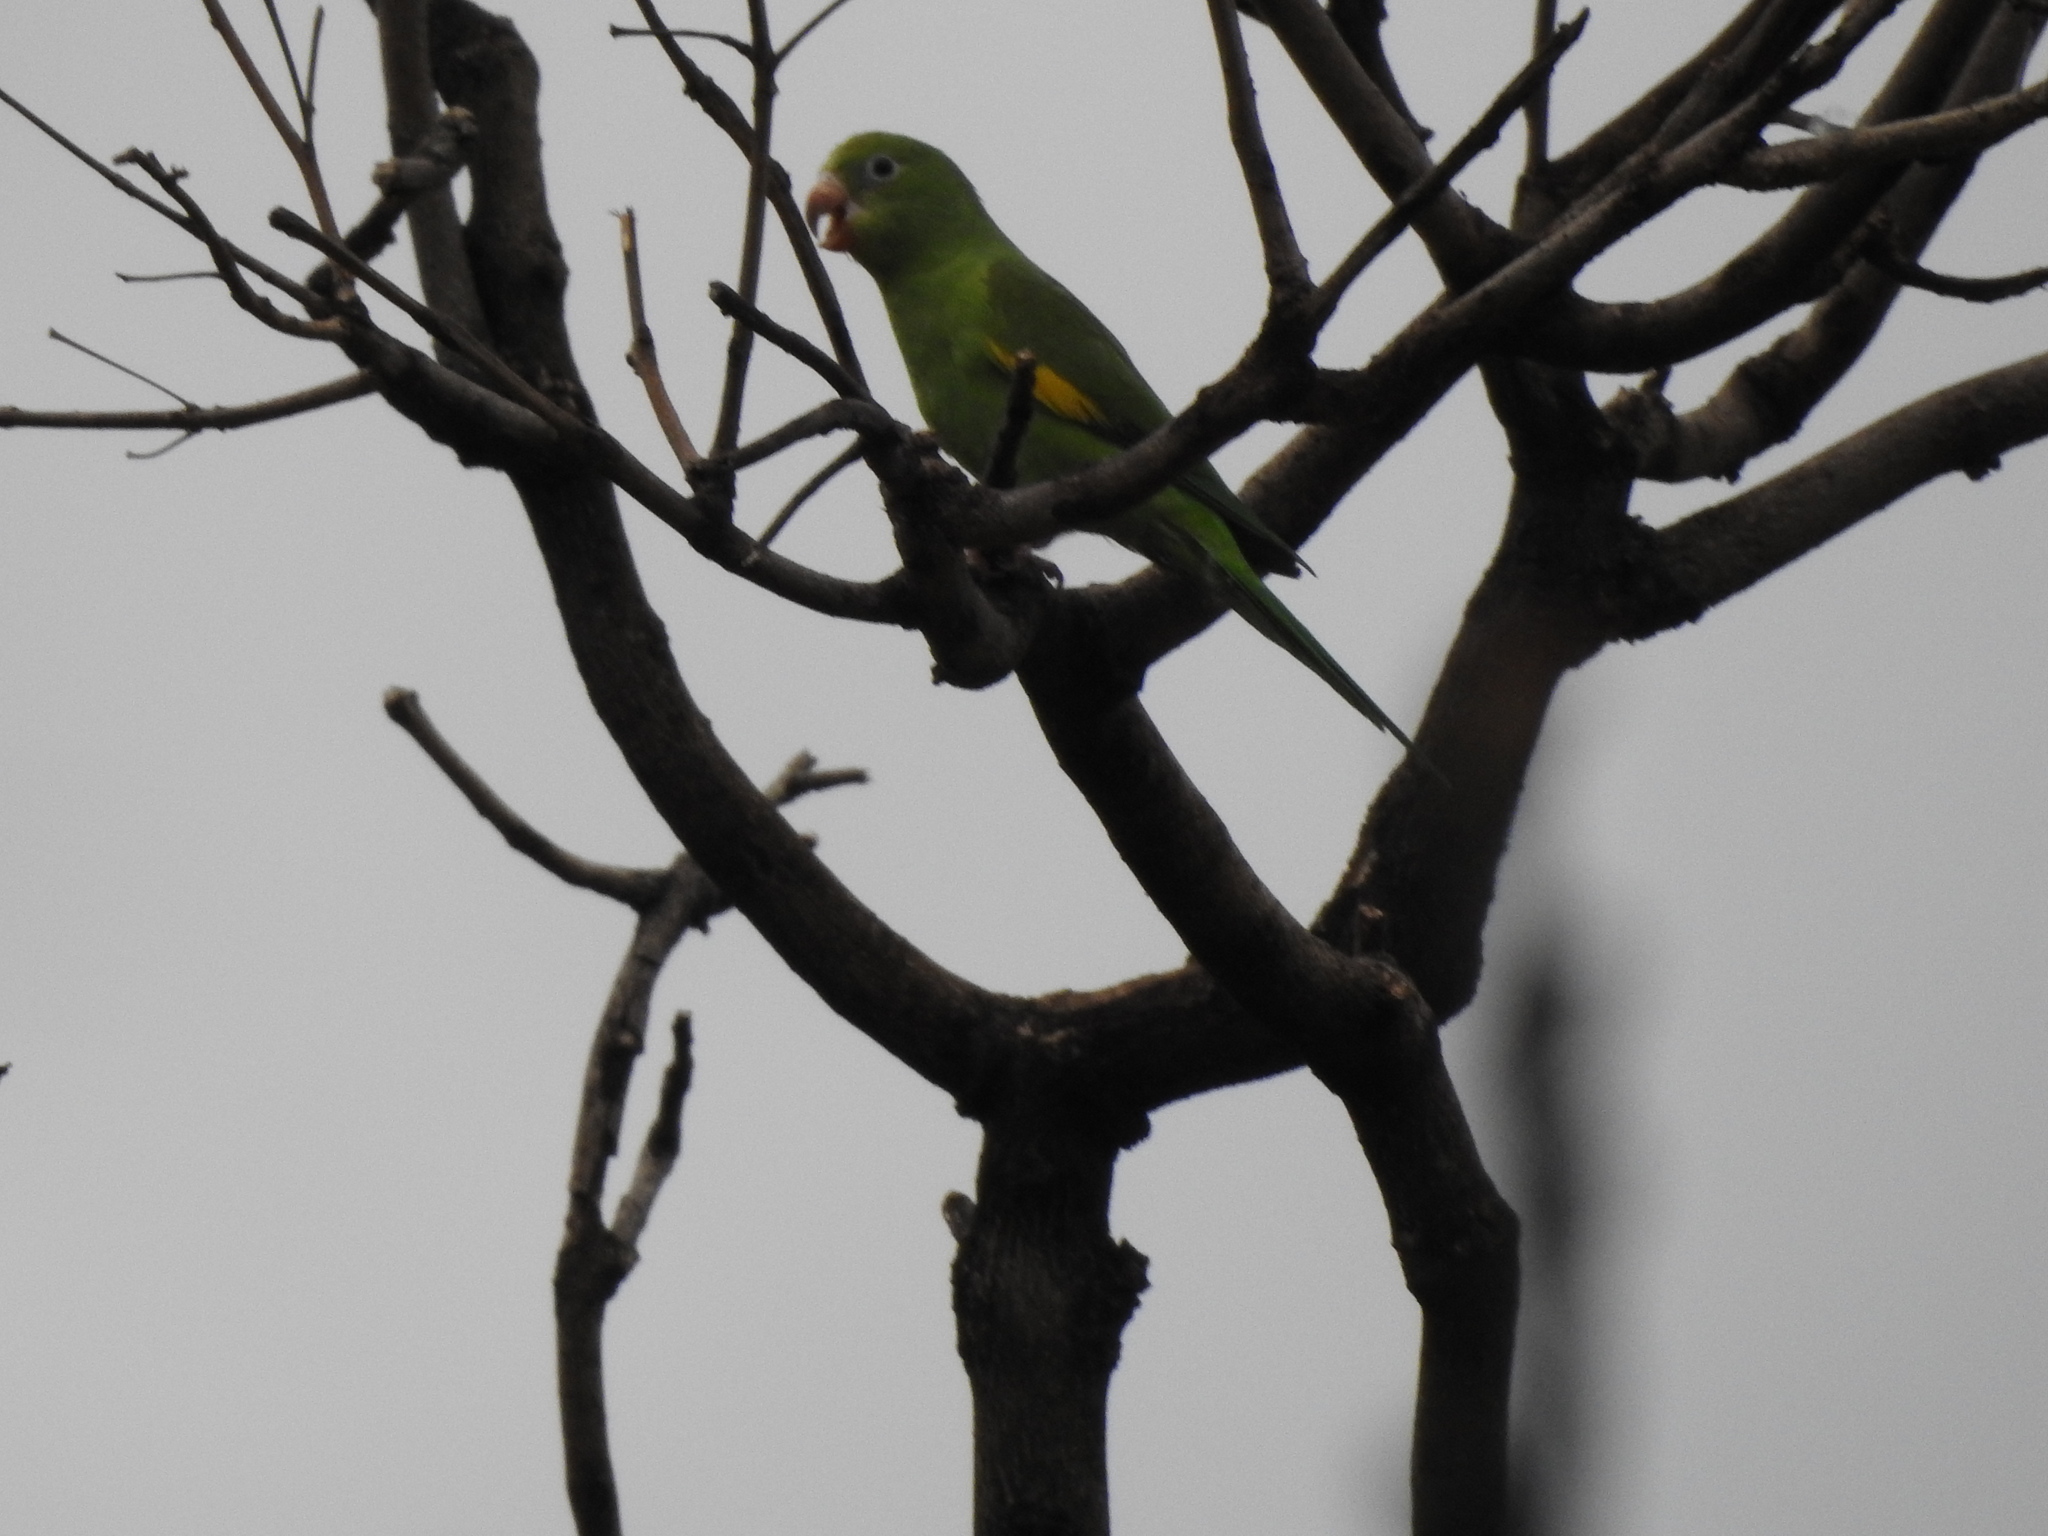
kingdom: Animalia
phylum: Chordata
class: Aves
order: Psittaciformes
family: Psittacidae
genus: Brotogeris
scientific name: Brotogeris chiriri
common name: Yellow-chevroned parakeet
